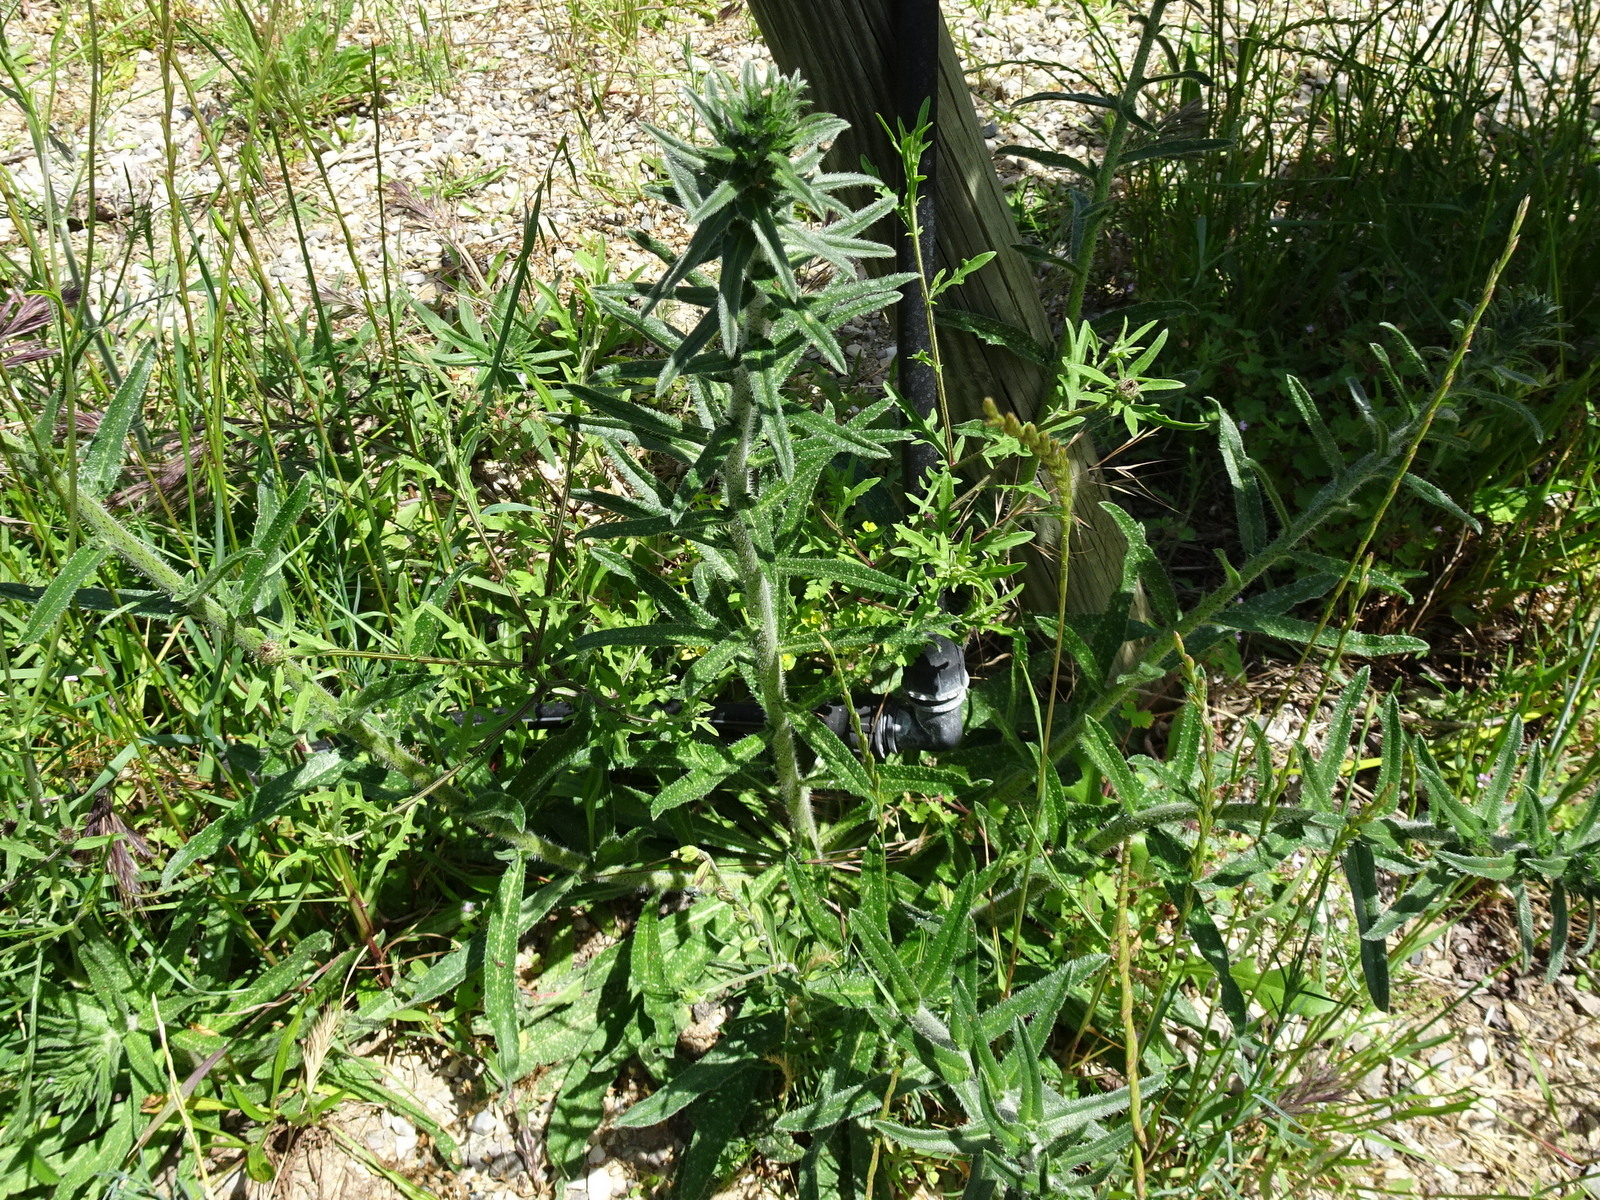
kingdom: Animalia
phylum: Arthropoda
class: Insecta
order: Hemiptera
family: Tingidae
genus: Dictyla
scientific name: Dictyla echii
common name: Lace bug
